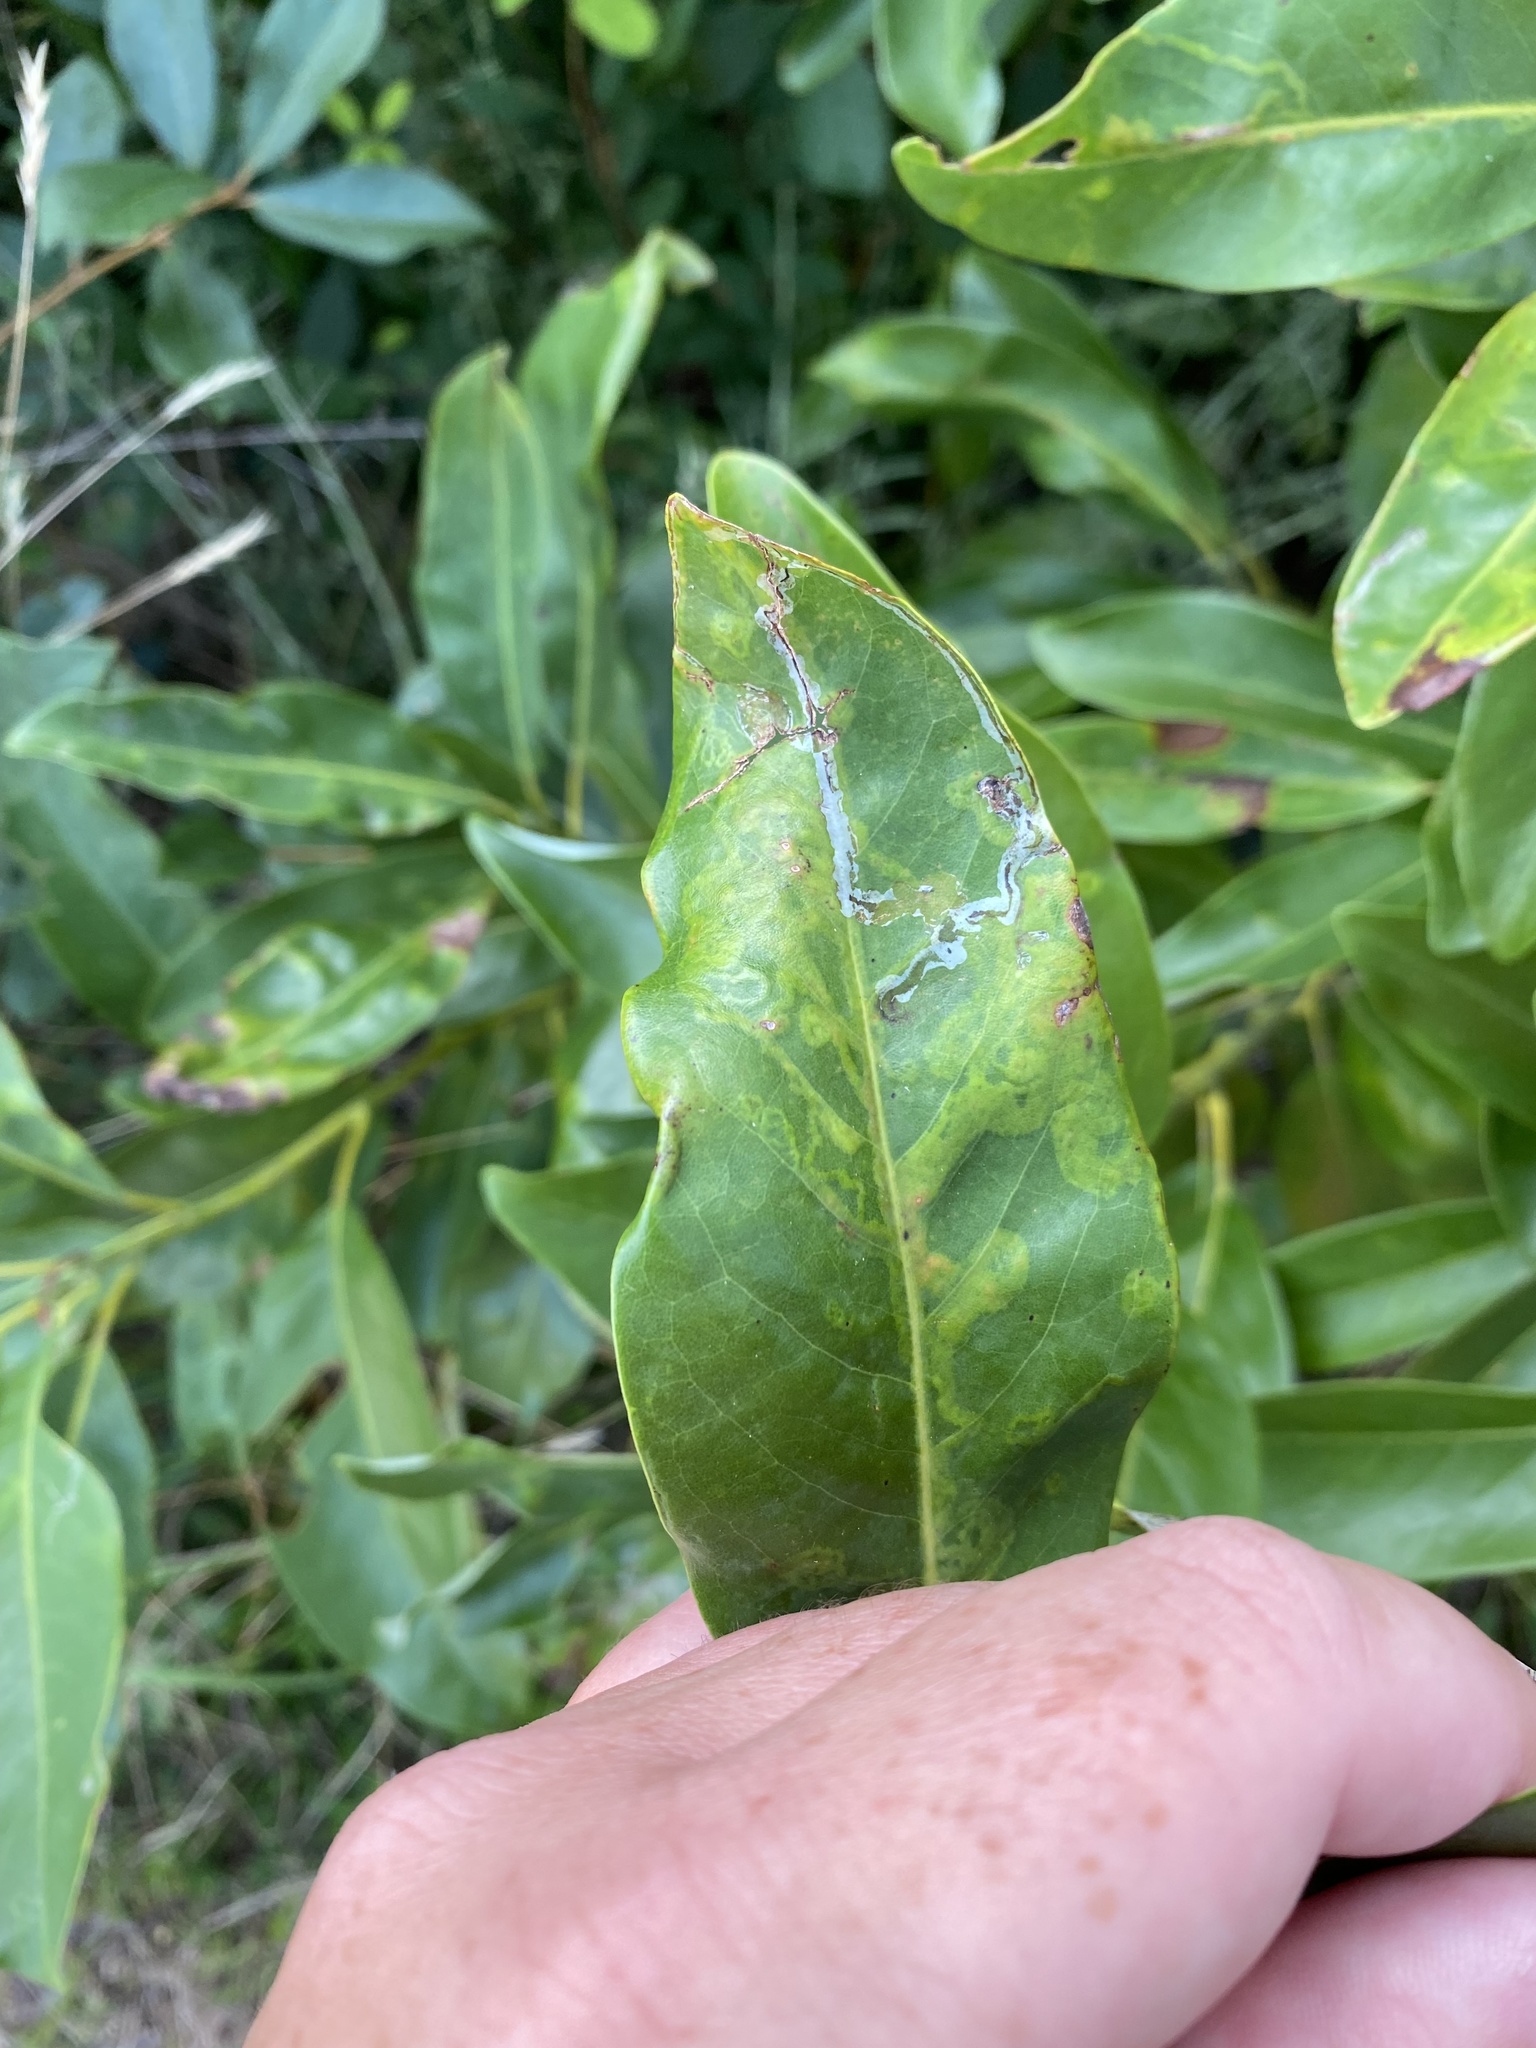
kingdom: Animalia
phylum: Arthropoda
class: Insecta
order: Lepidoptera
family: Gracillariidae
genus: Phyllocnistis
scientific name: Phyllocnistis liriodendronella
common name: Tulip tree leaf miner
